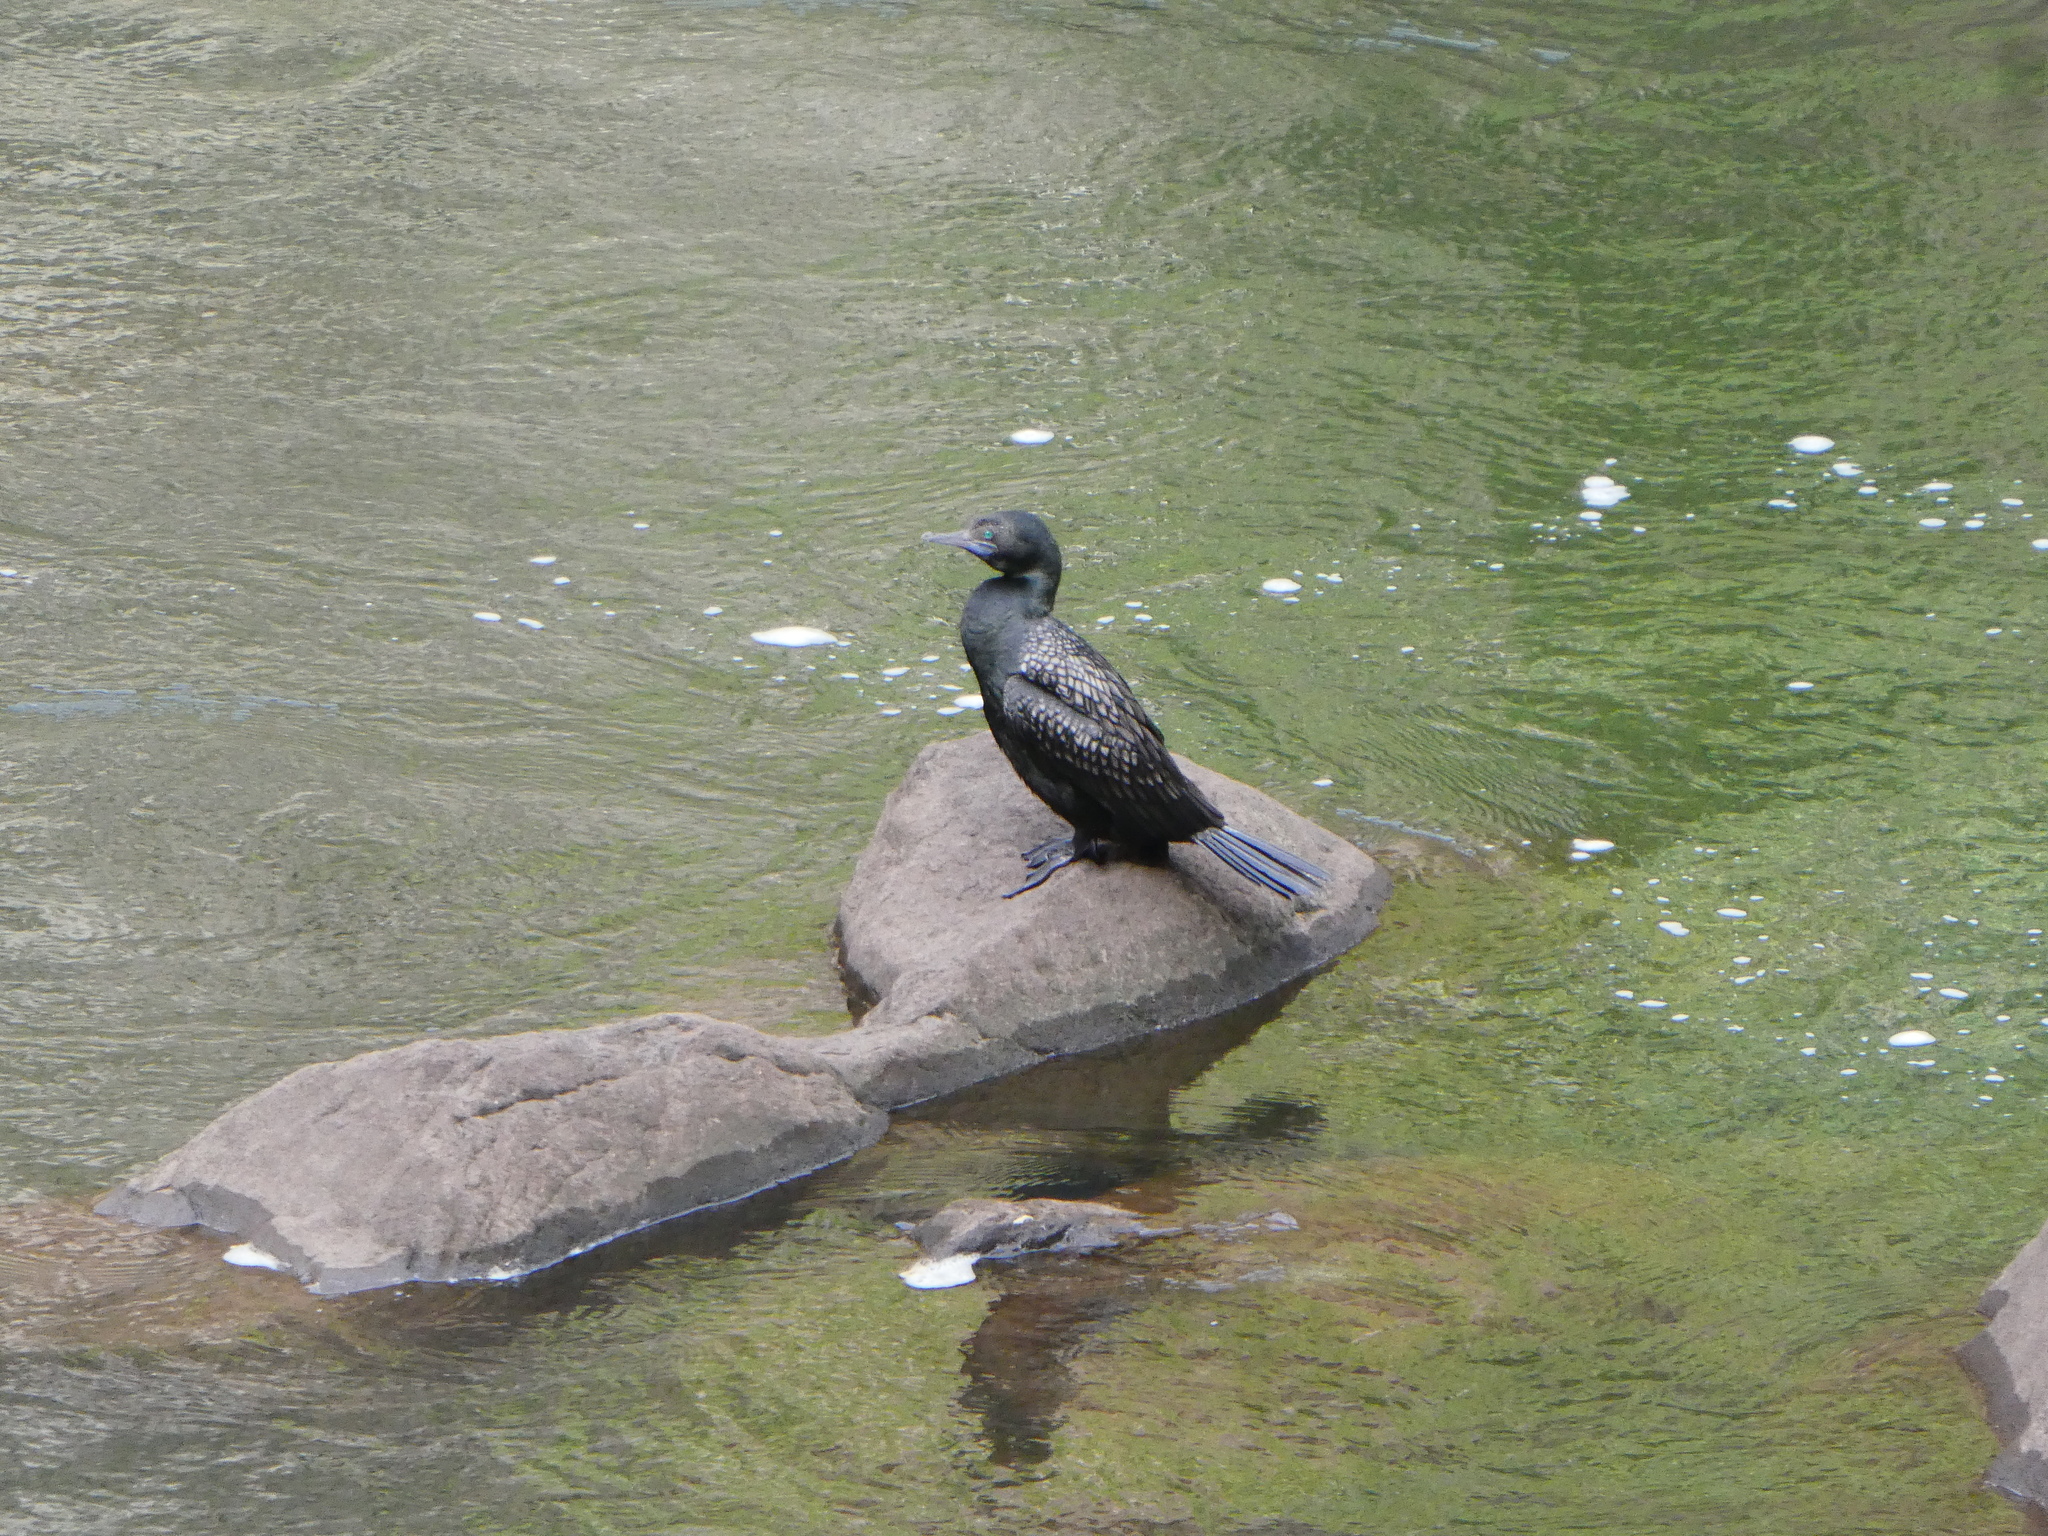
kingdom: Animalia
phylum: Chordata
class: Aves
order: Suliformes
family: Phalacrocoracidae
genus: Phalacrocorax
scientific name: Phalacrocorax sulcirostris
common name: Little black cormorant
